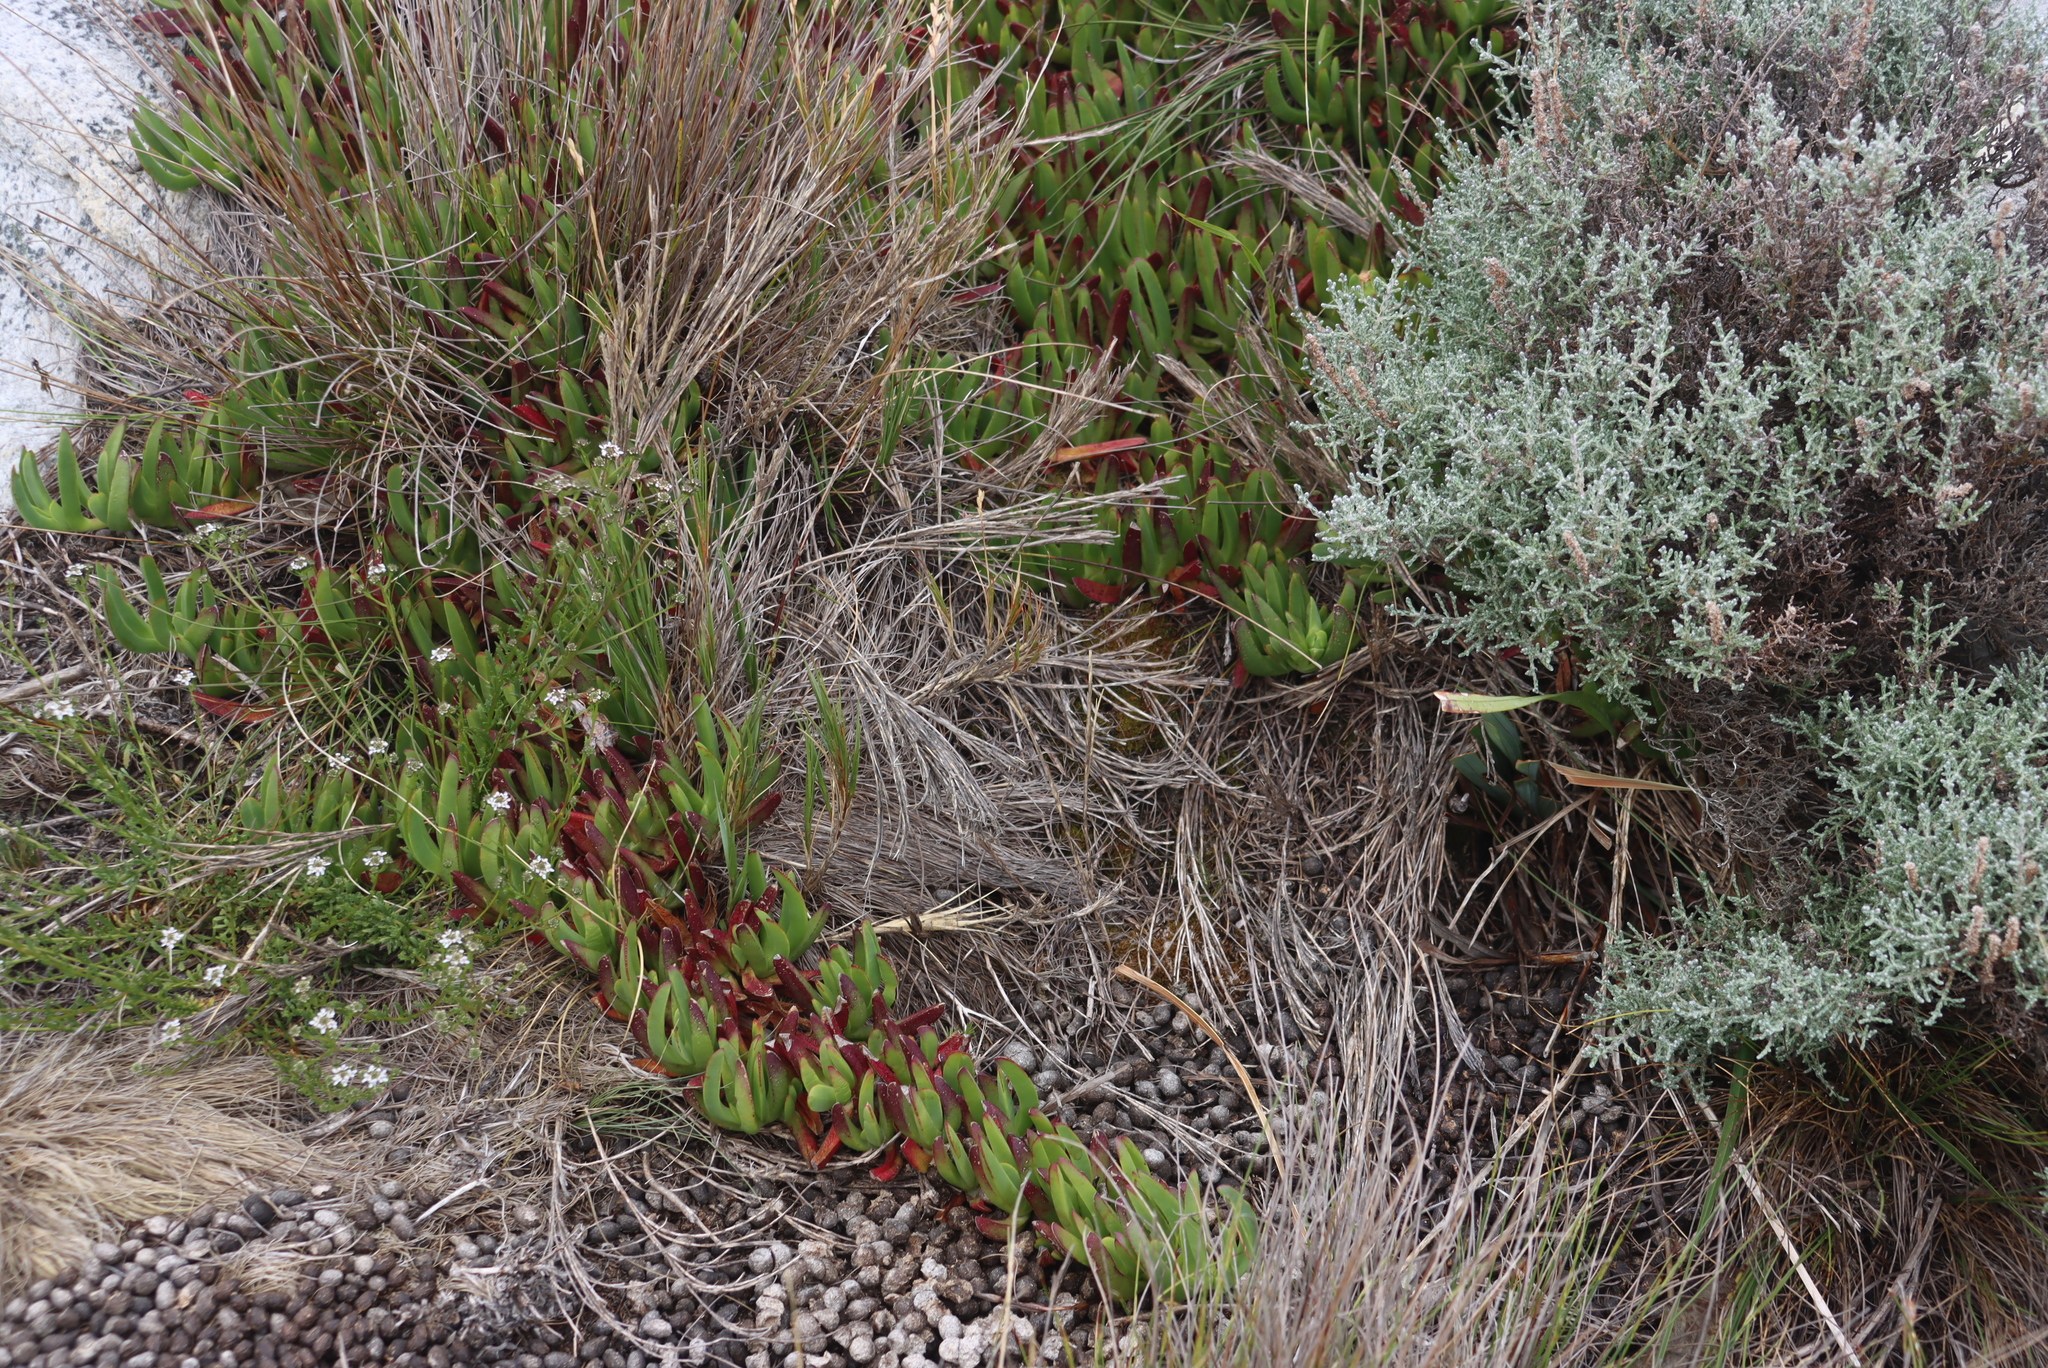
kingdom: Plantae
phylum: Tracheophyta
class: Magnoliopsida
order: Asterales
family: Asteraceae
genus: Seriphium
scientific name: Seriphium plumosum
